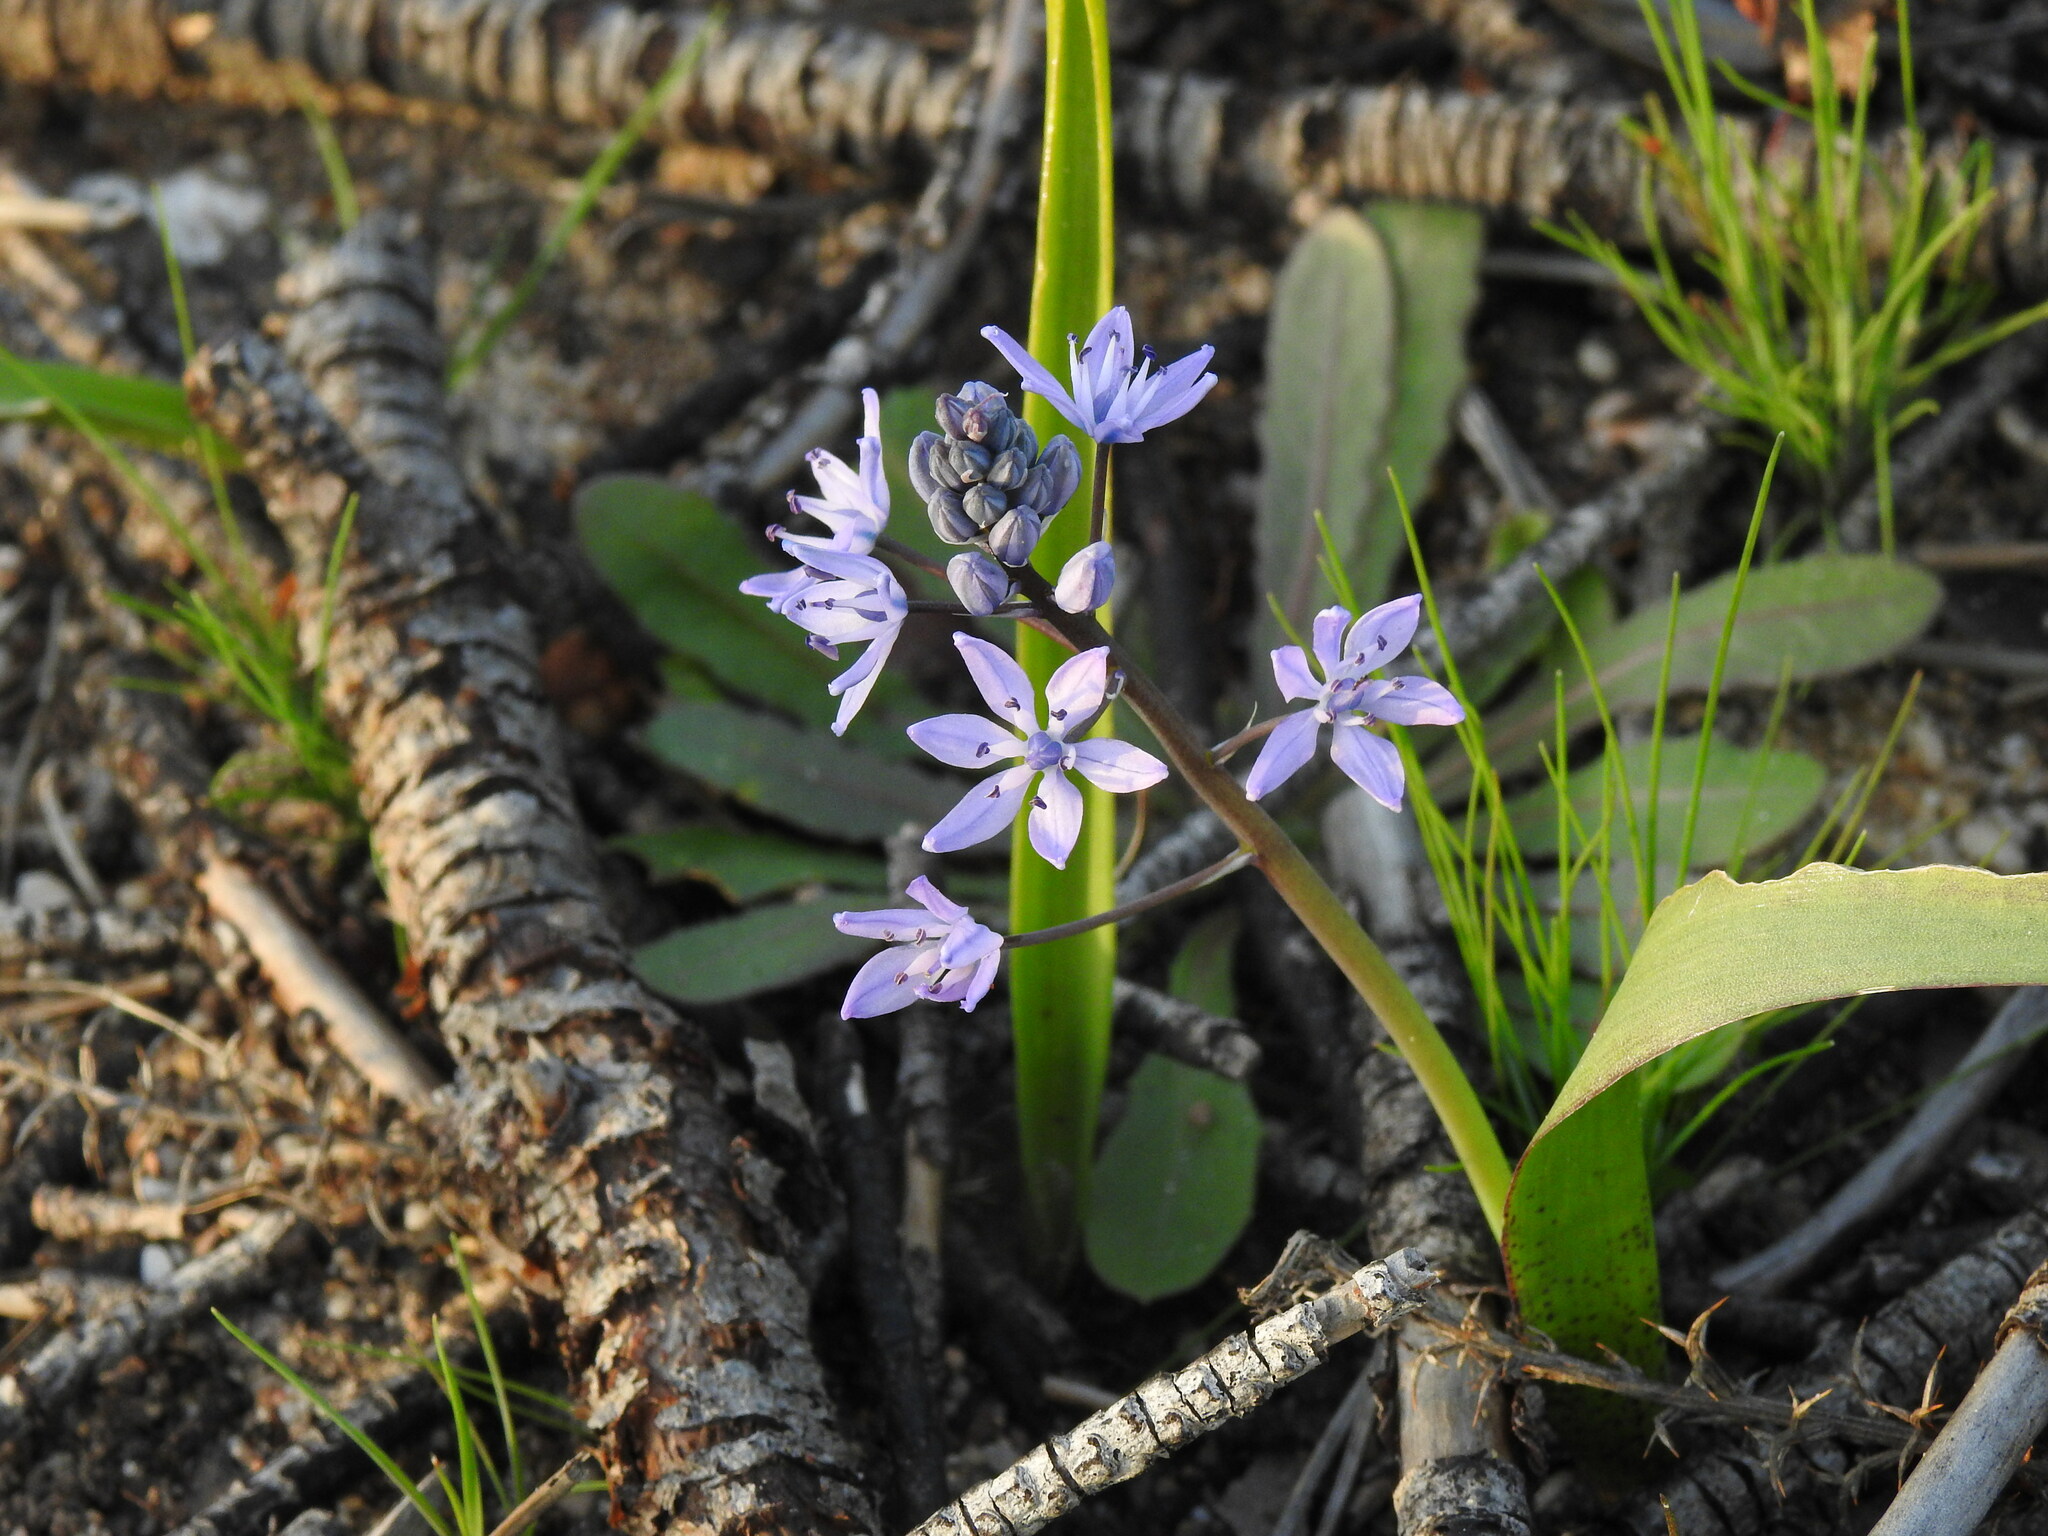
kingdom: Plantae
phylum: Tracheophyta
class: Liliopsida
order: Asparagales
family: Asparagaceae
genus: Scilla
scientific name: Scilla monophyllos
